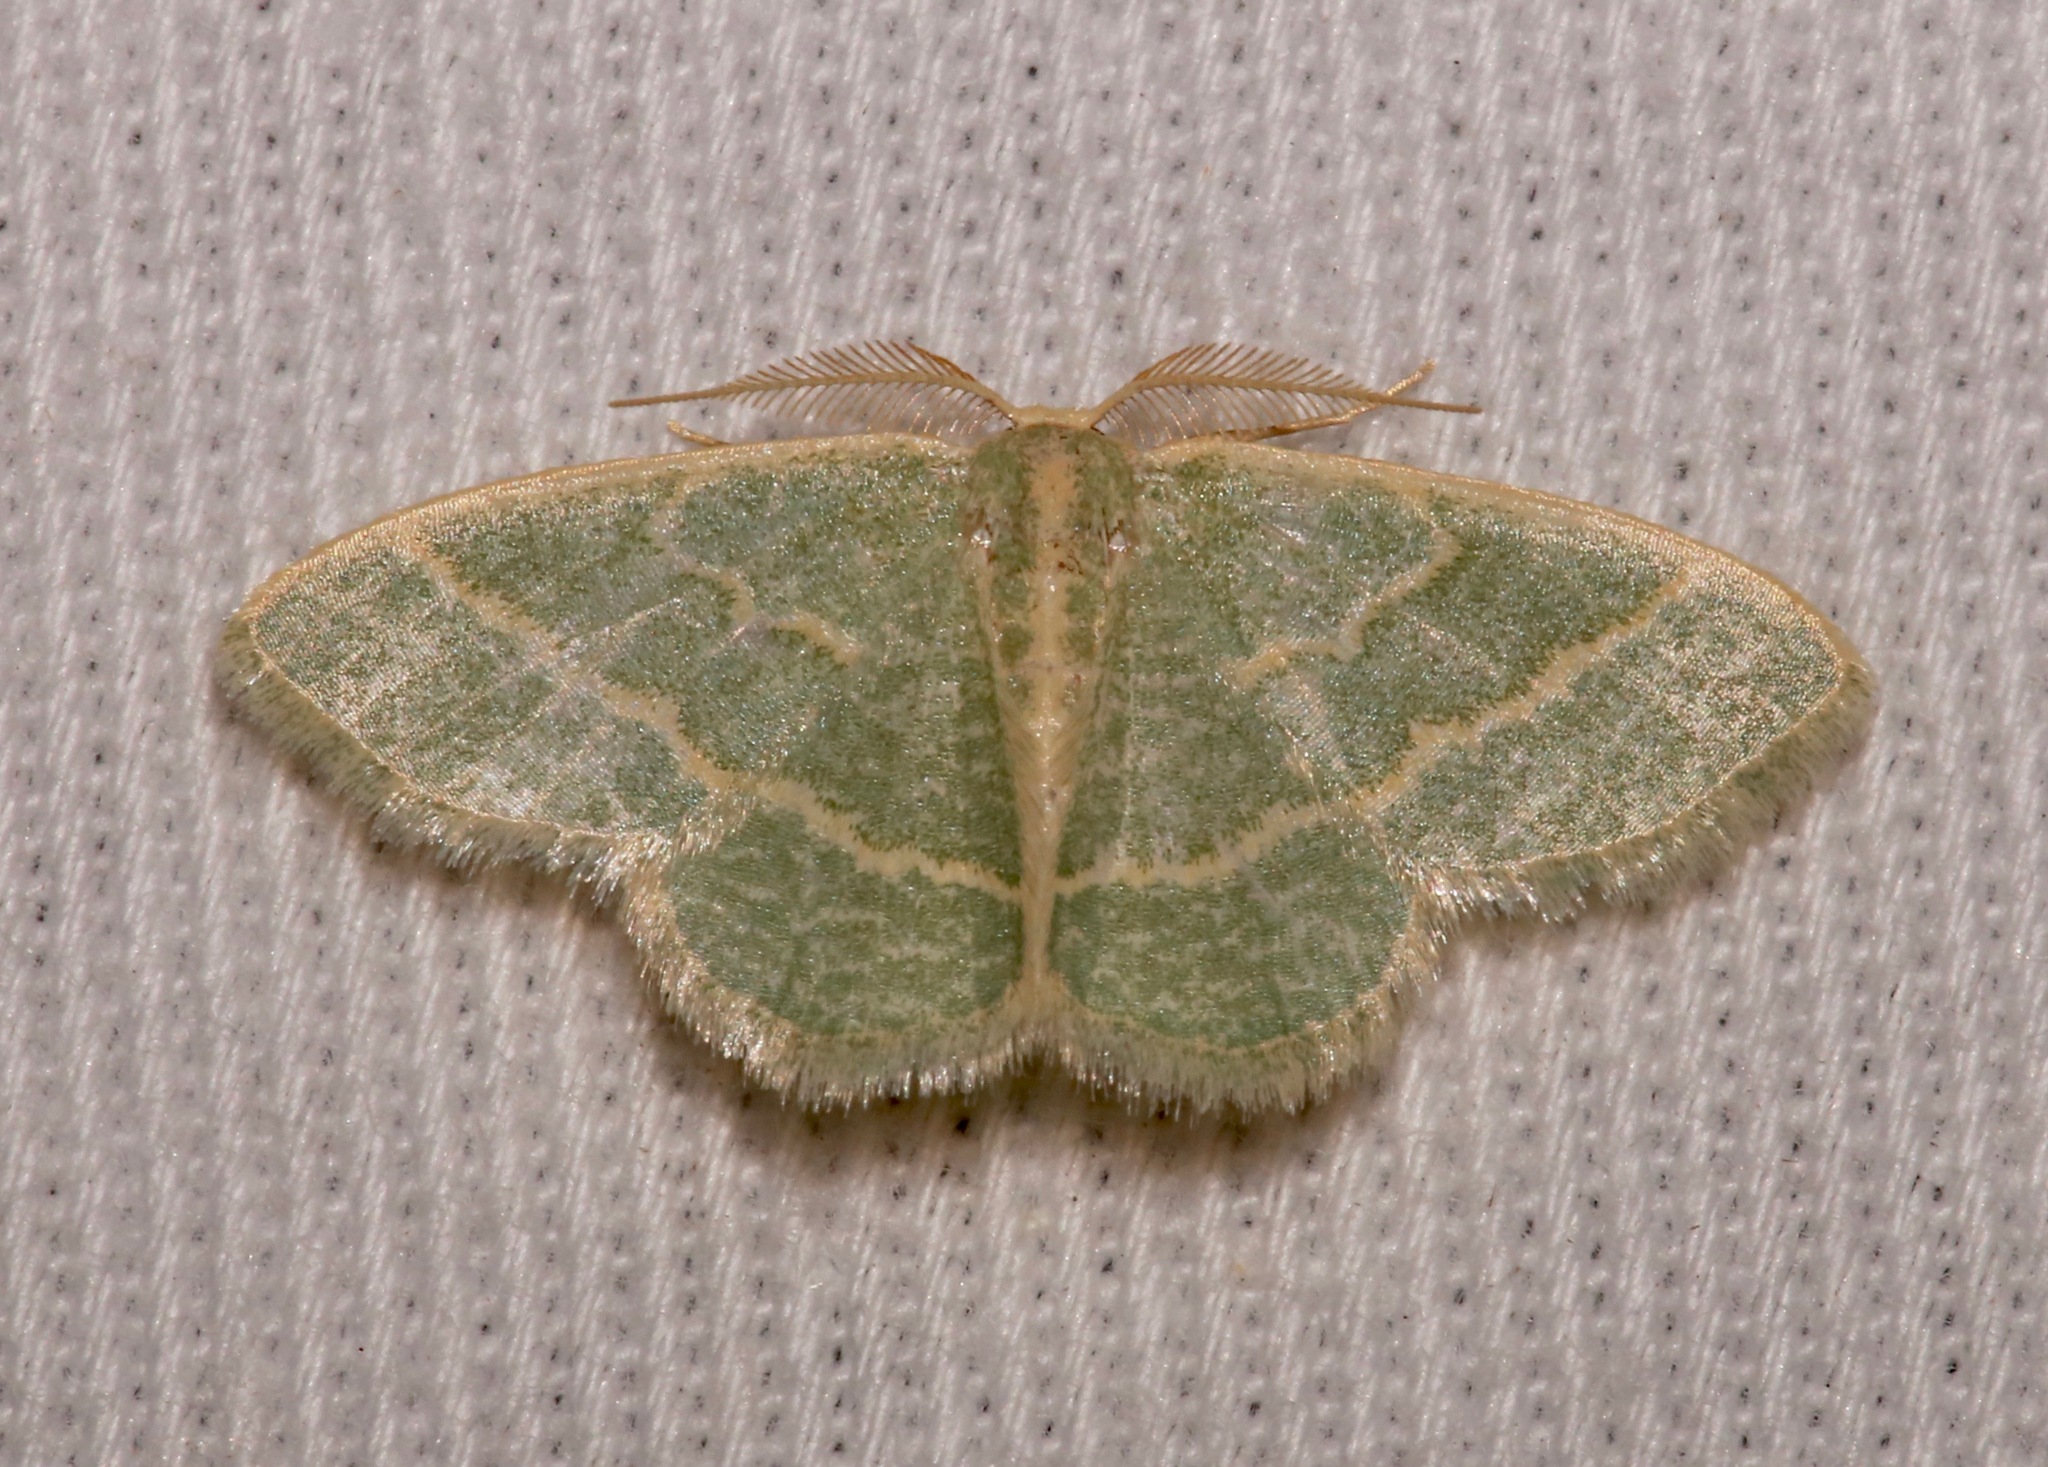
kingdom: Animalia
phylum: Arthropoda
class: Insecta
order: Lepidoptera
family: Geometridae
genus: Chlorochlamys
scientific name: Chlorochlamys chloroleucaria
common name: Blackberry looper
